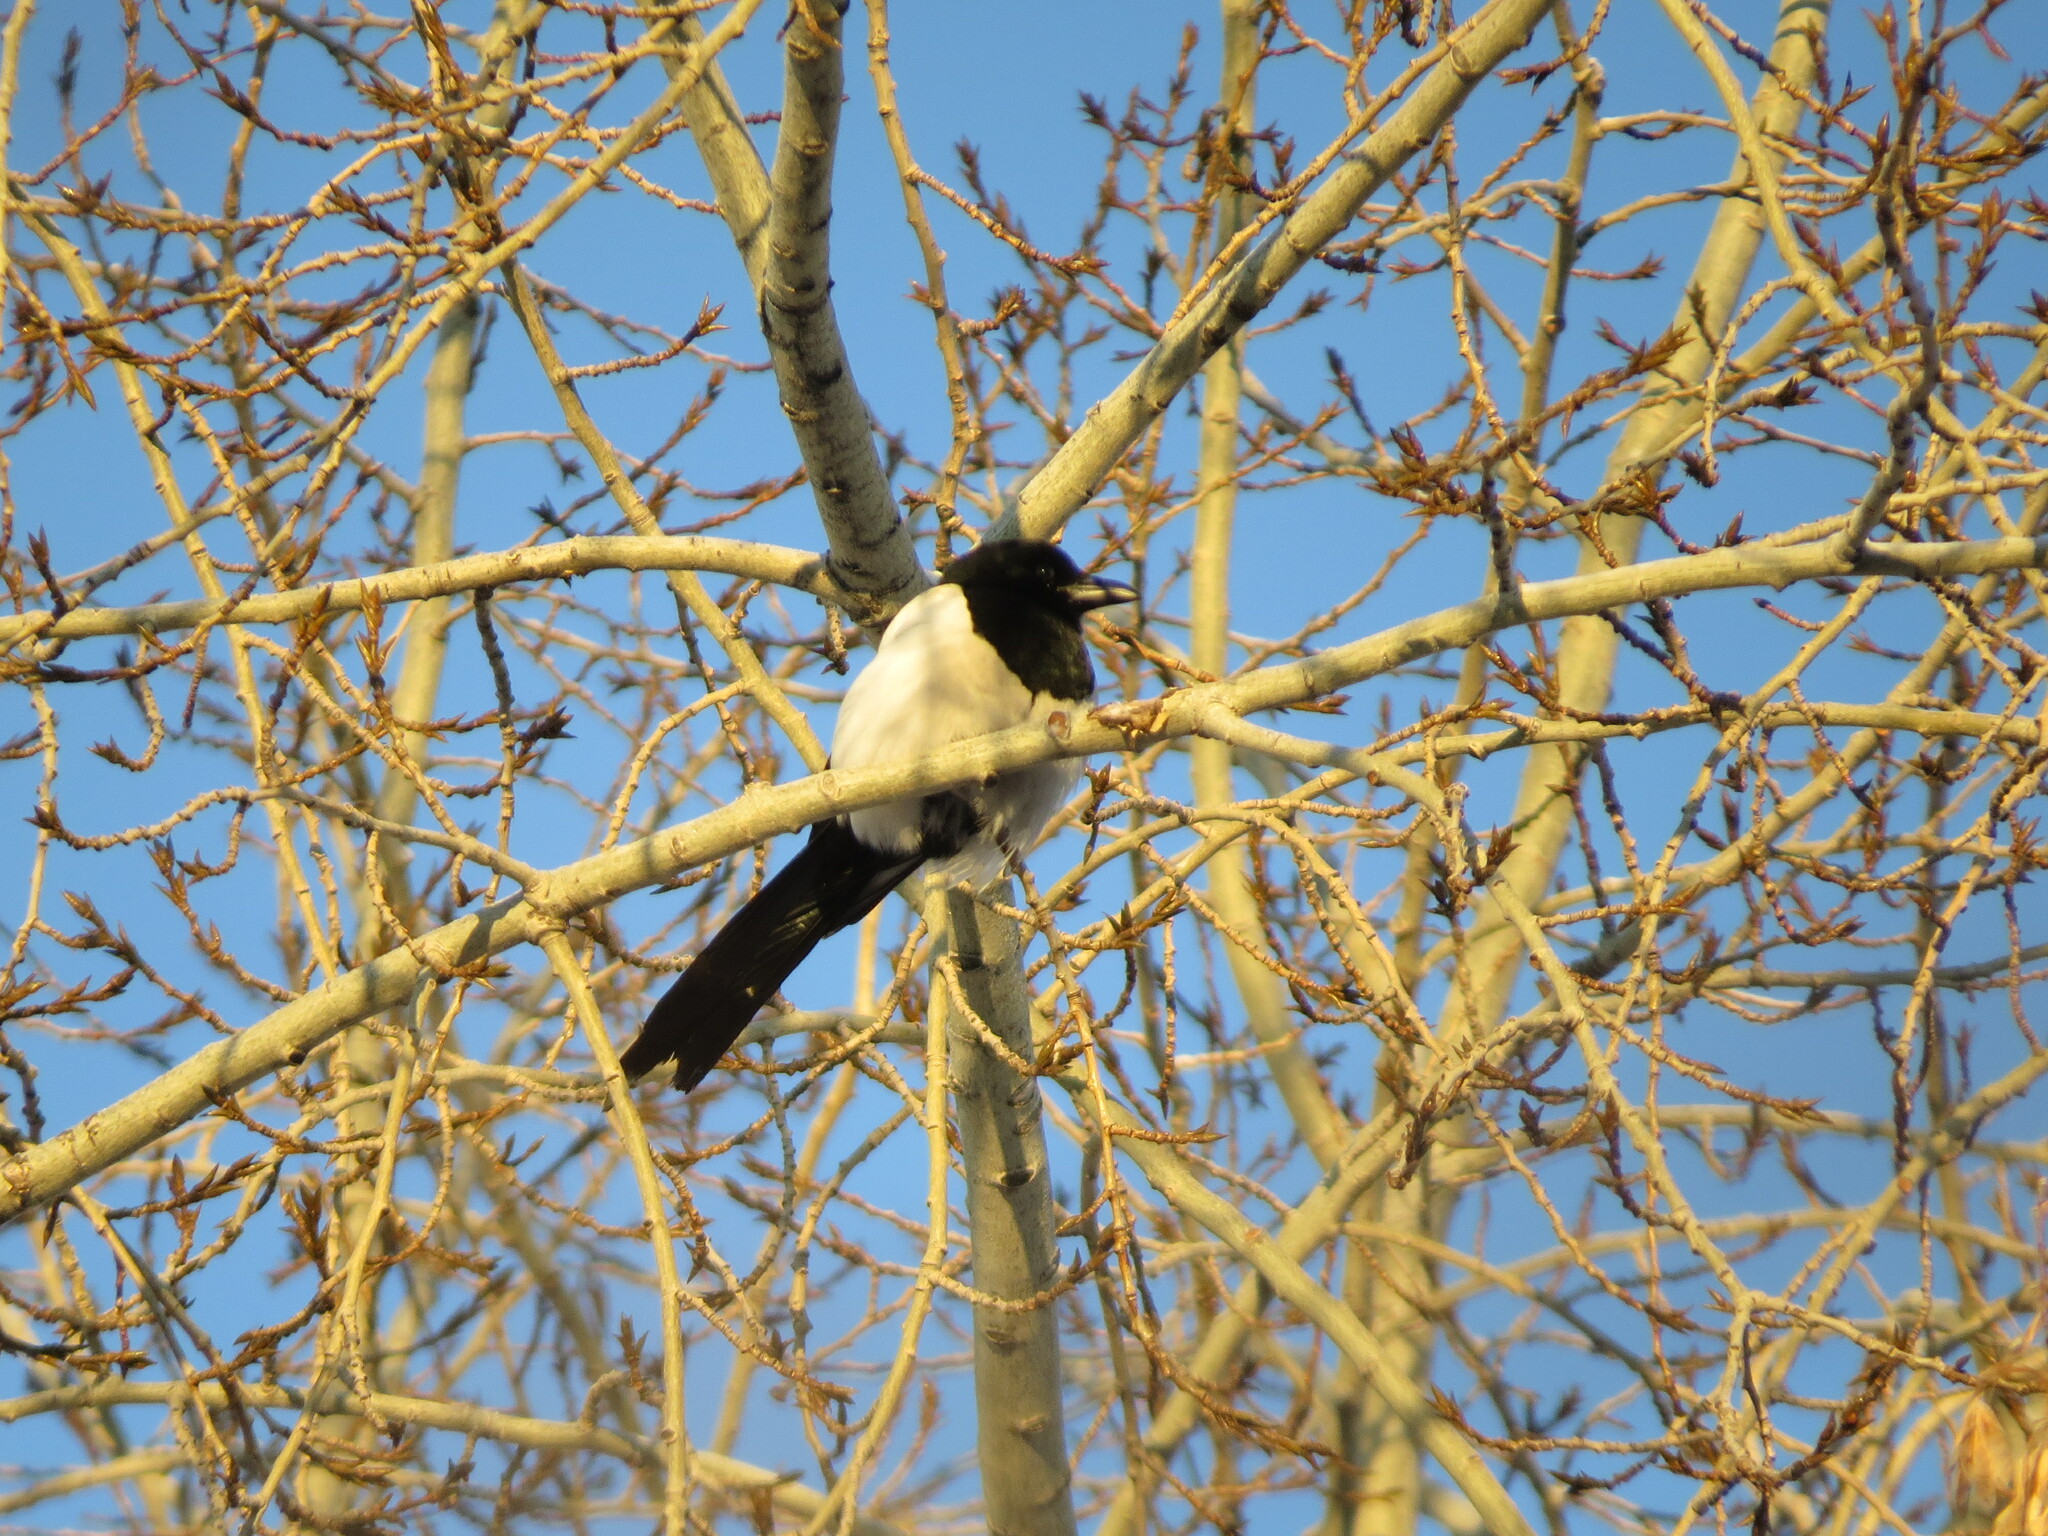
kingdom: Animalia
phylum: Chordata
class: Aves
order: Passeriformes
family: Corvidae
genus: Pica
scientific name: Pica pica
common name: Eurasian magpie
